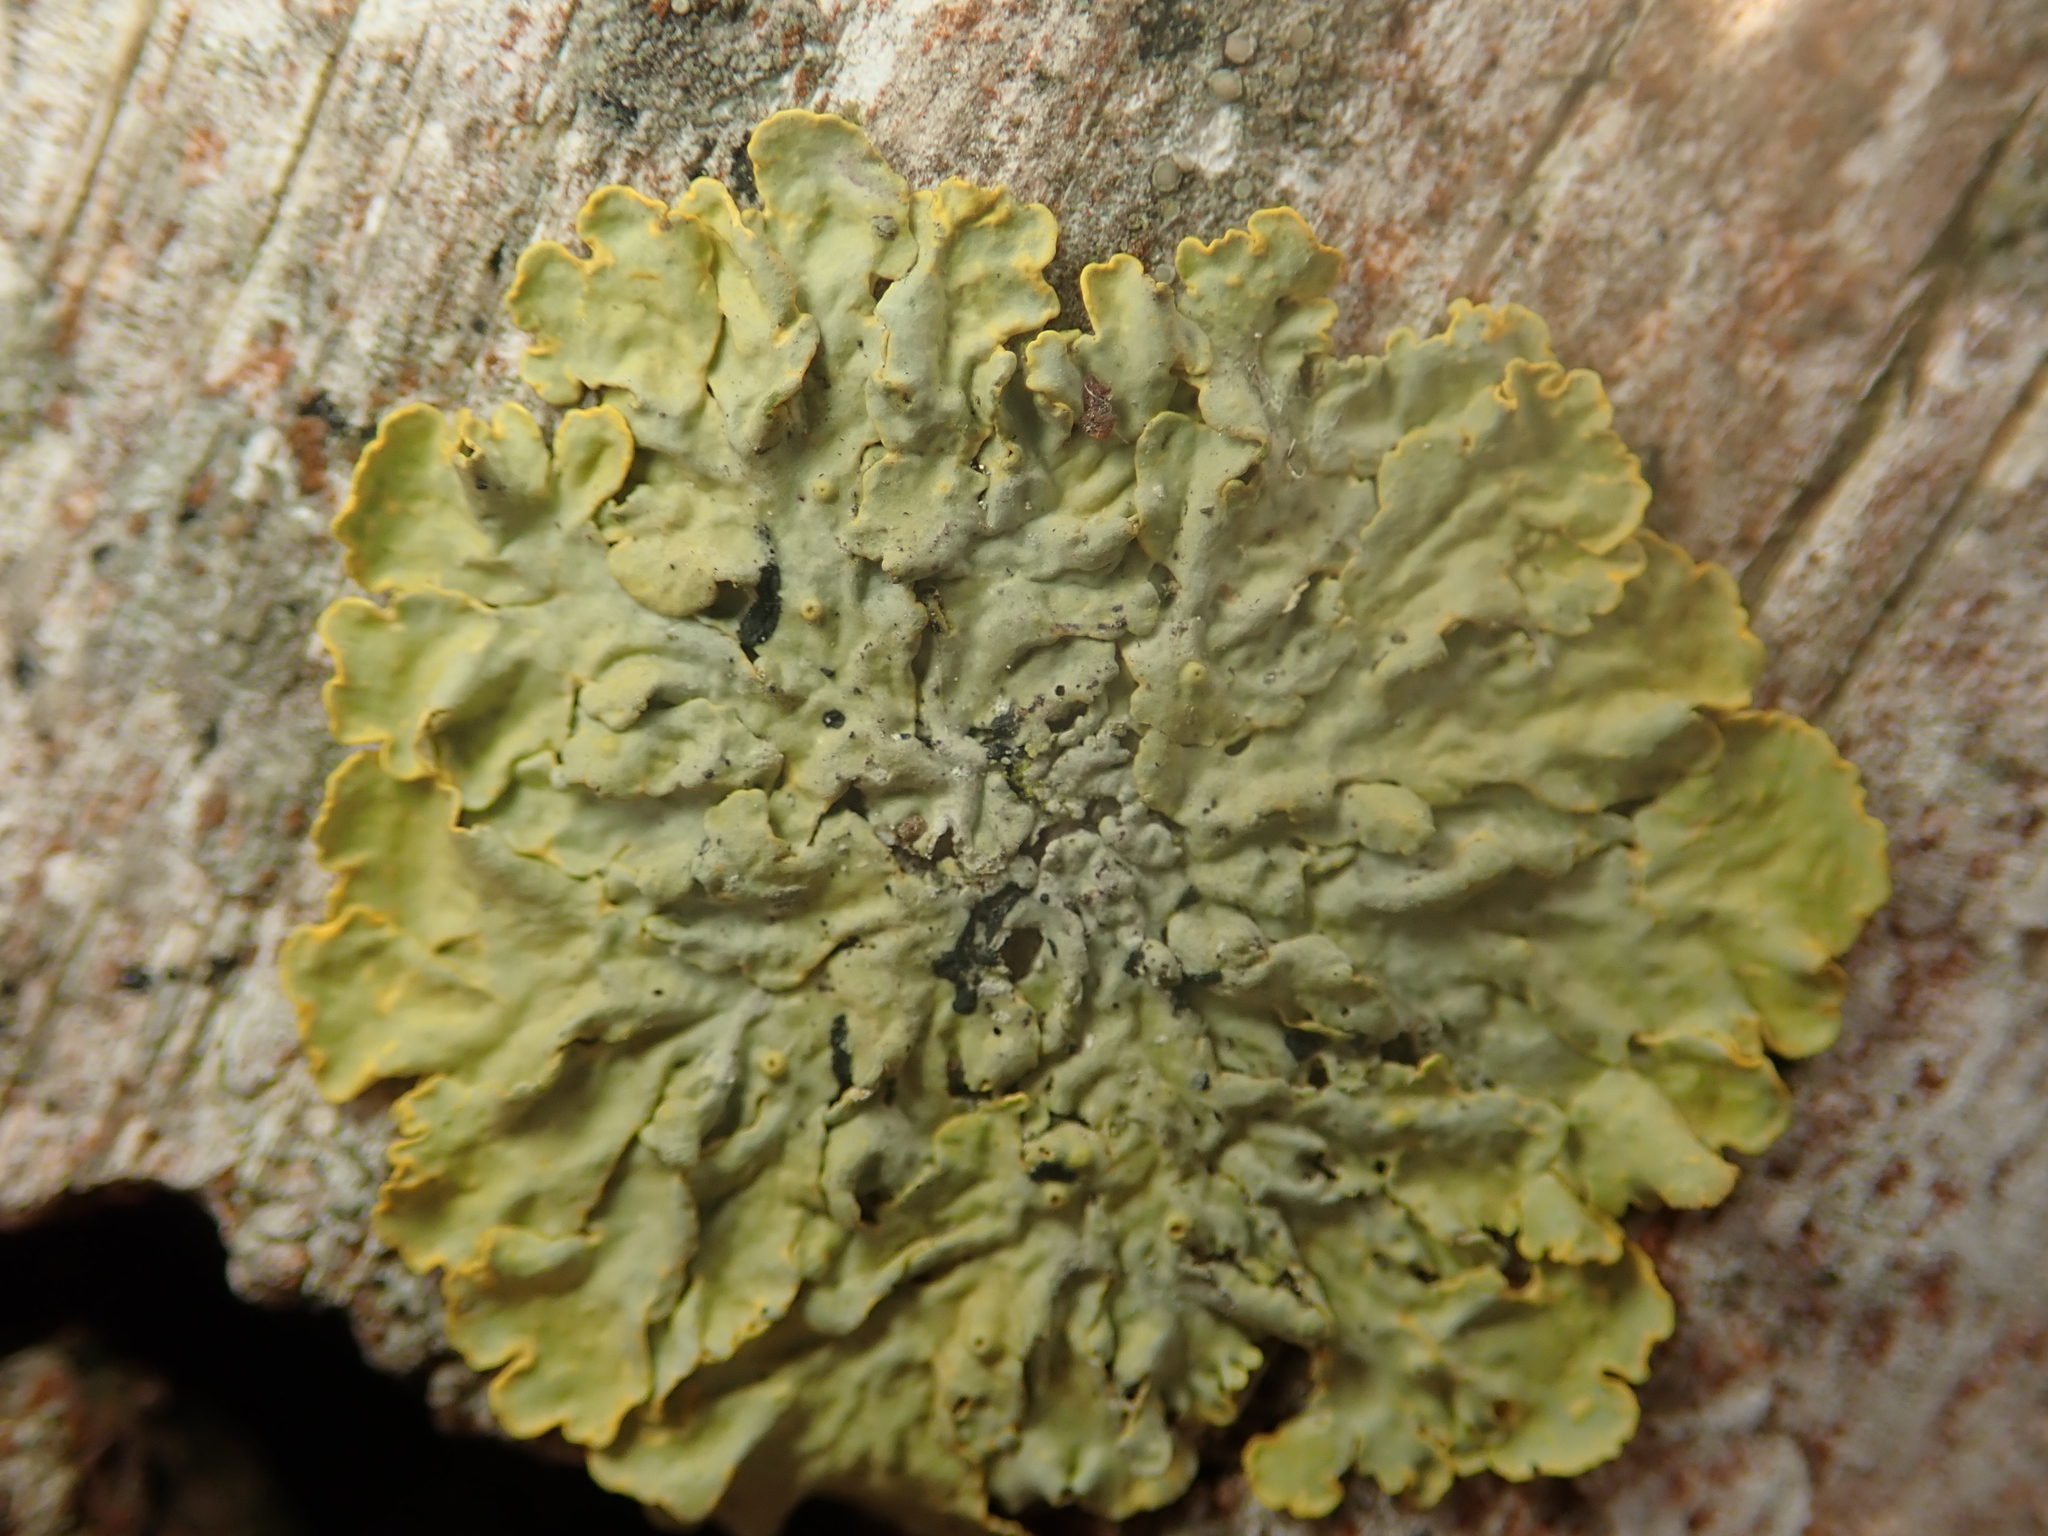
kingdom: Fungi
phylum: Ascomycota
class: Lecanoromycetes
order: Teloschistales
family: Teloschistaceae
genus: Xanthoria
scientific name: Xanthoria parietina
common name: Common orange lichen
